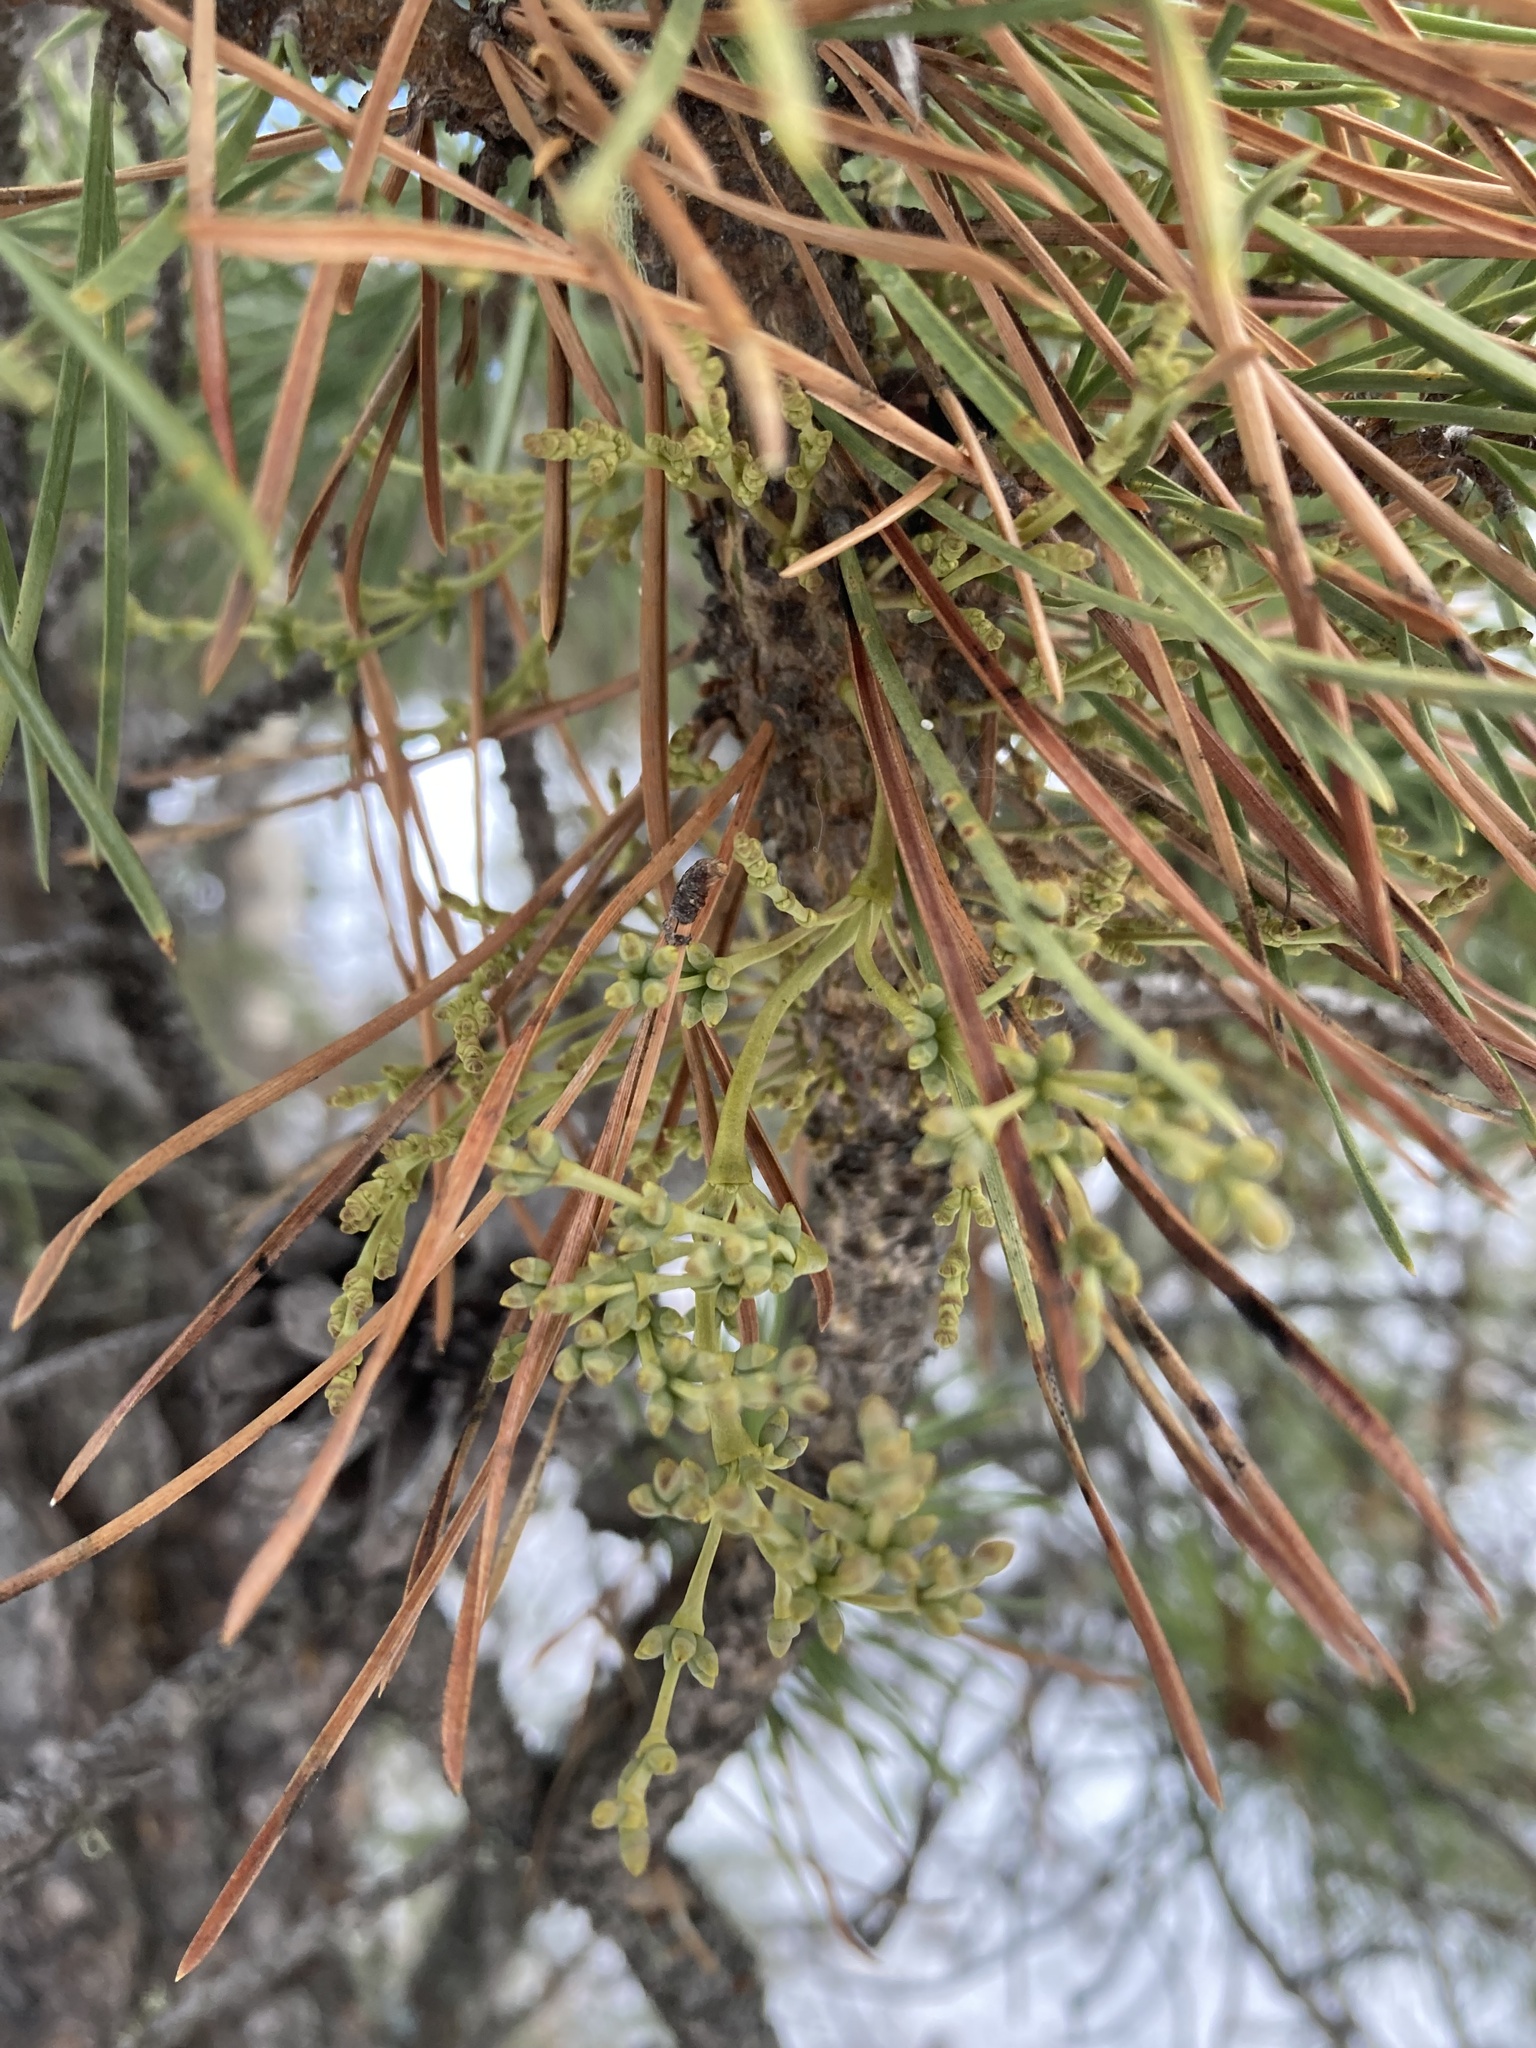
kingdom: Plantae
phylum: Tracheophyta
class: Magnoliopsida
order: Santalales
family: Viscaceae
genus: Arceuthobium
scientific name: Arceuthobium americanum
